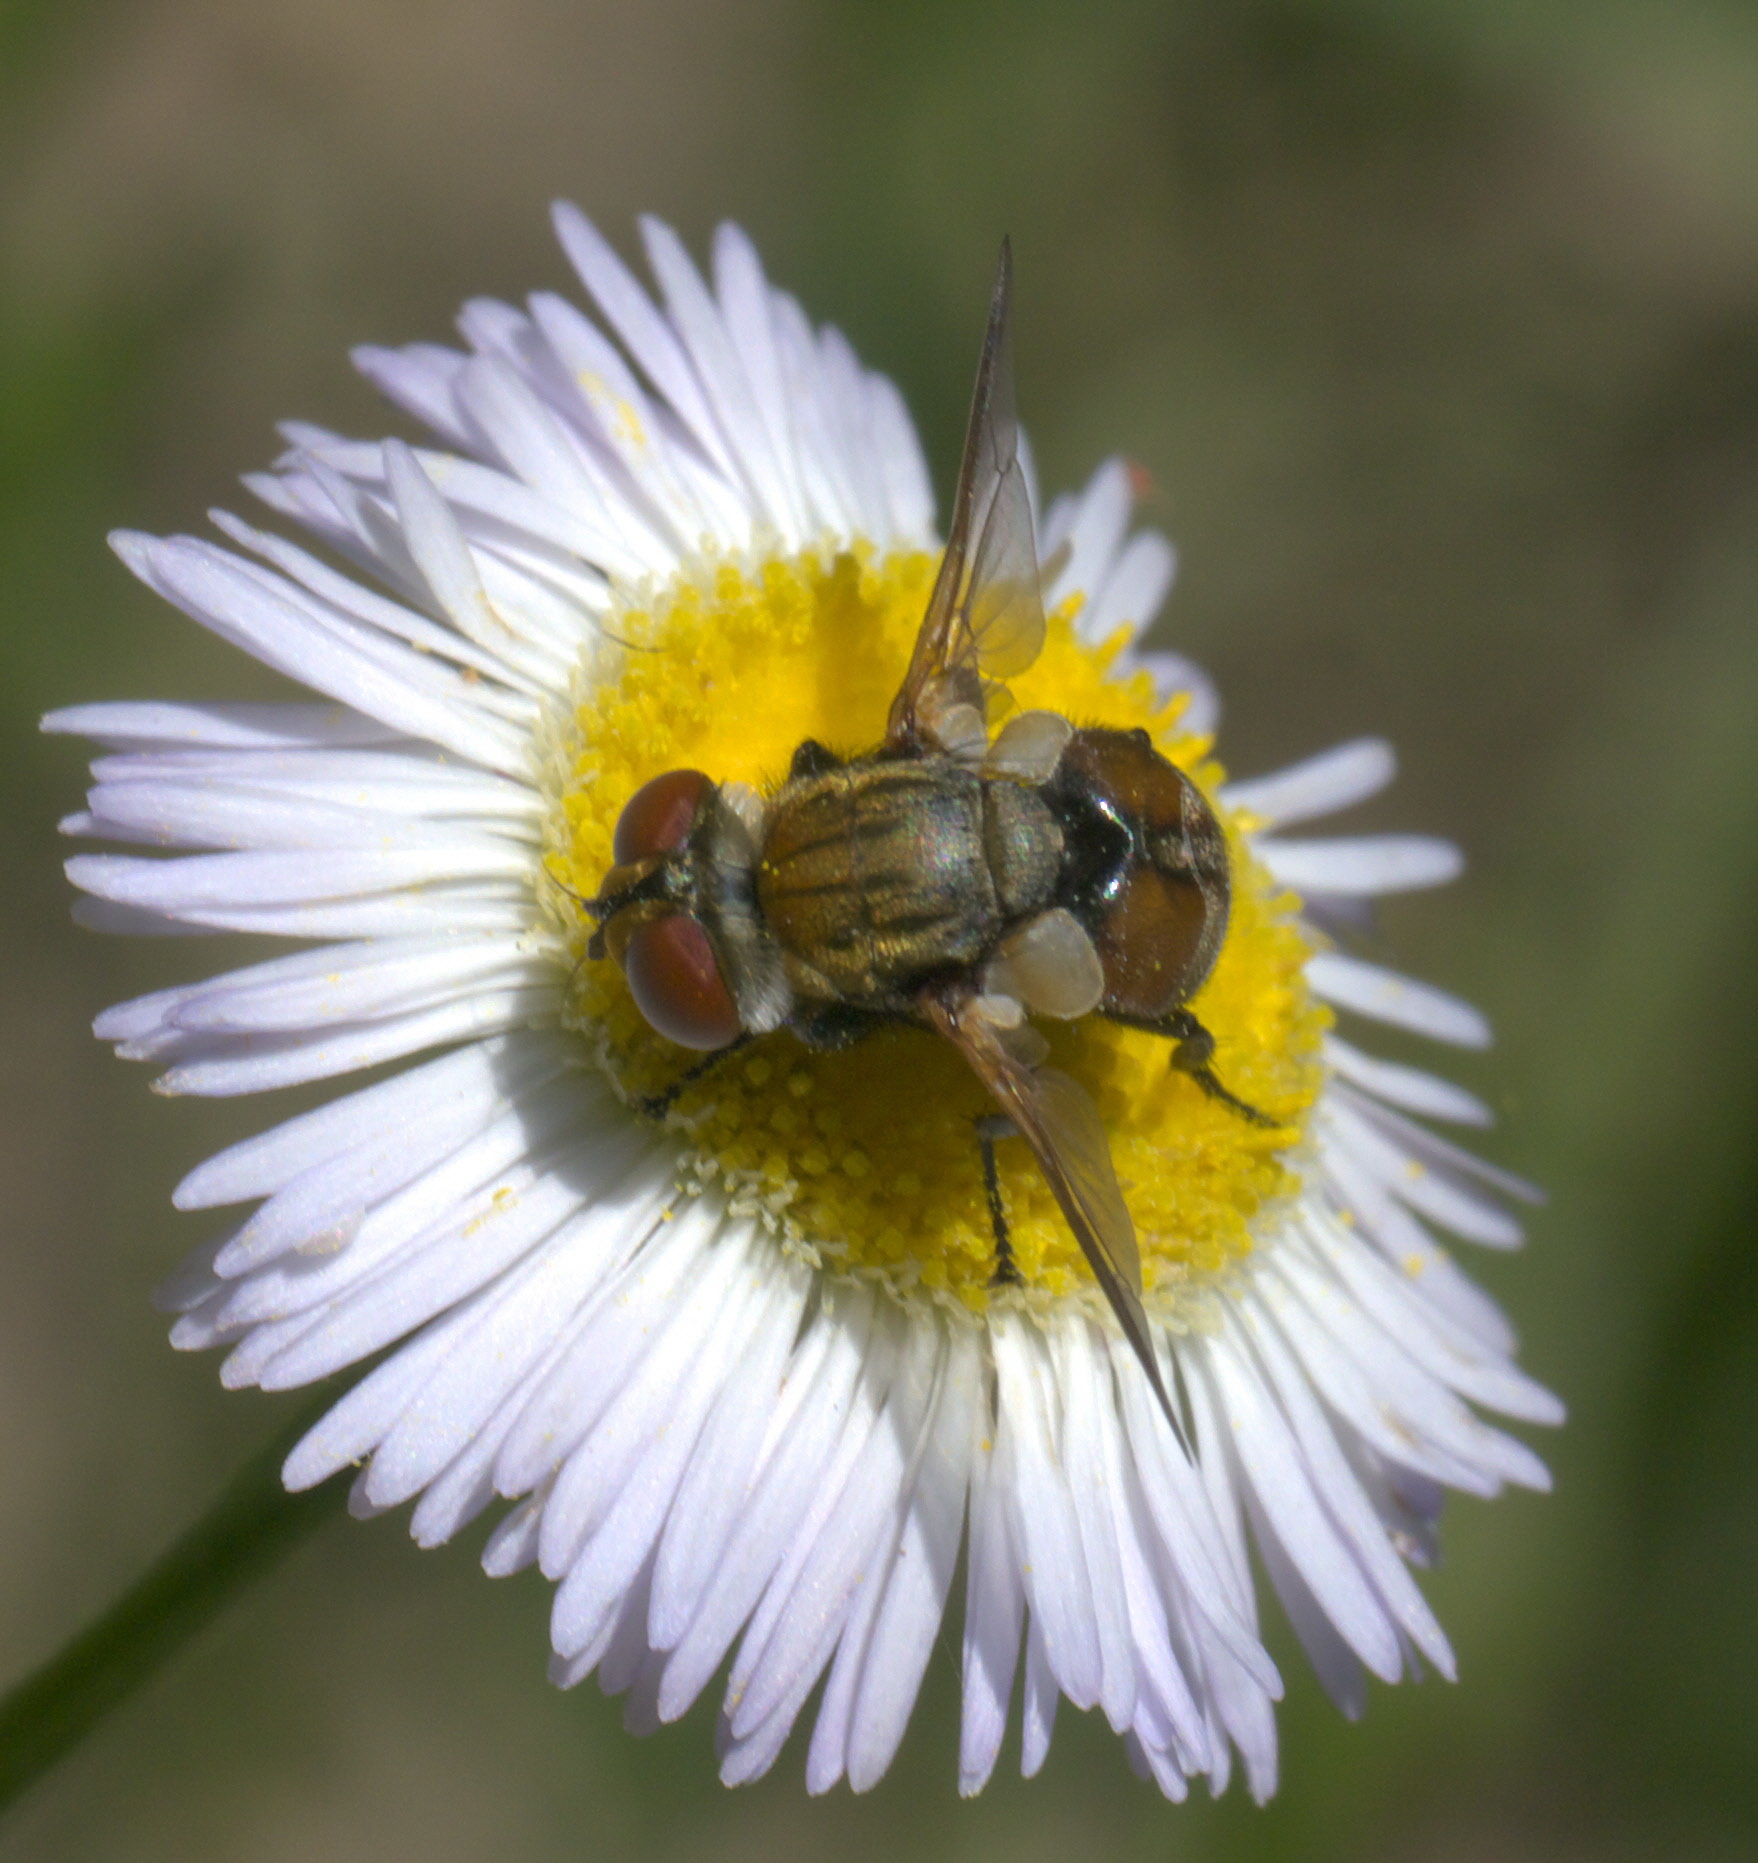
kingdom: Animalia
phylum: Arthropoda
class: Insecta
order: Diptera
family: Tachinidae
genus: Gymnoclytia
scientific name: Gymnoclytia occidua
